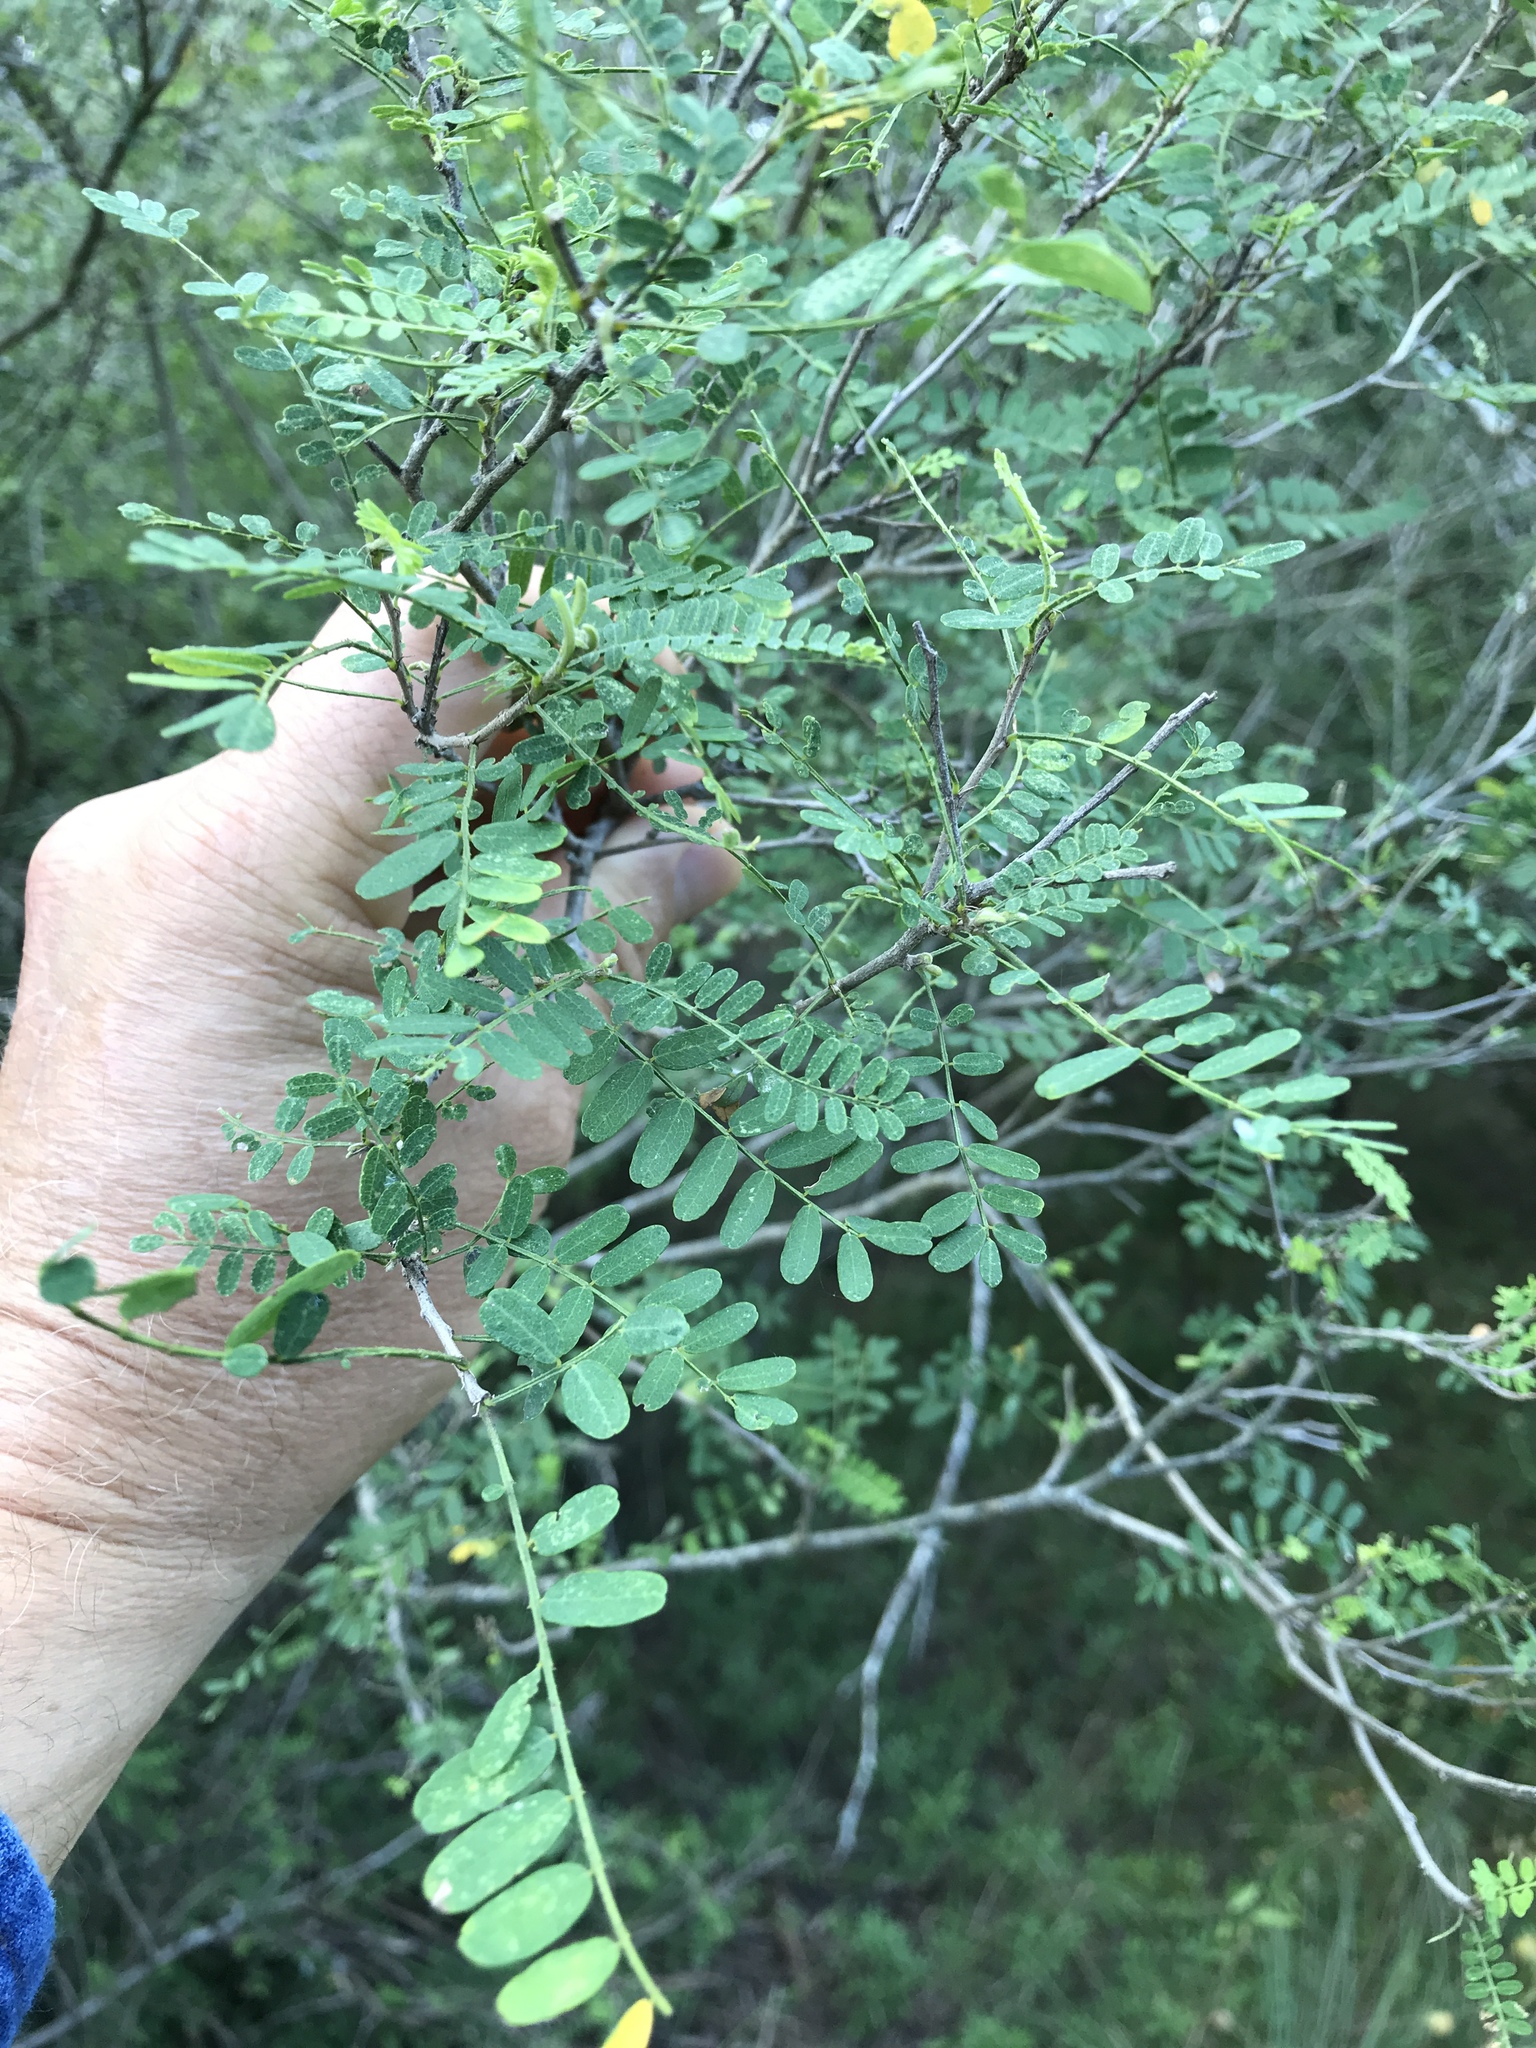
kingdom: Plantae
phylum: Tracheophyta
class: Magnoliopsida
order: Fabales
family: Fabaceae
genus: Eysenhardtia
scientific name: Eysenhardtia texana
